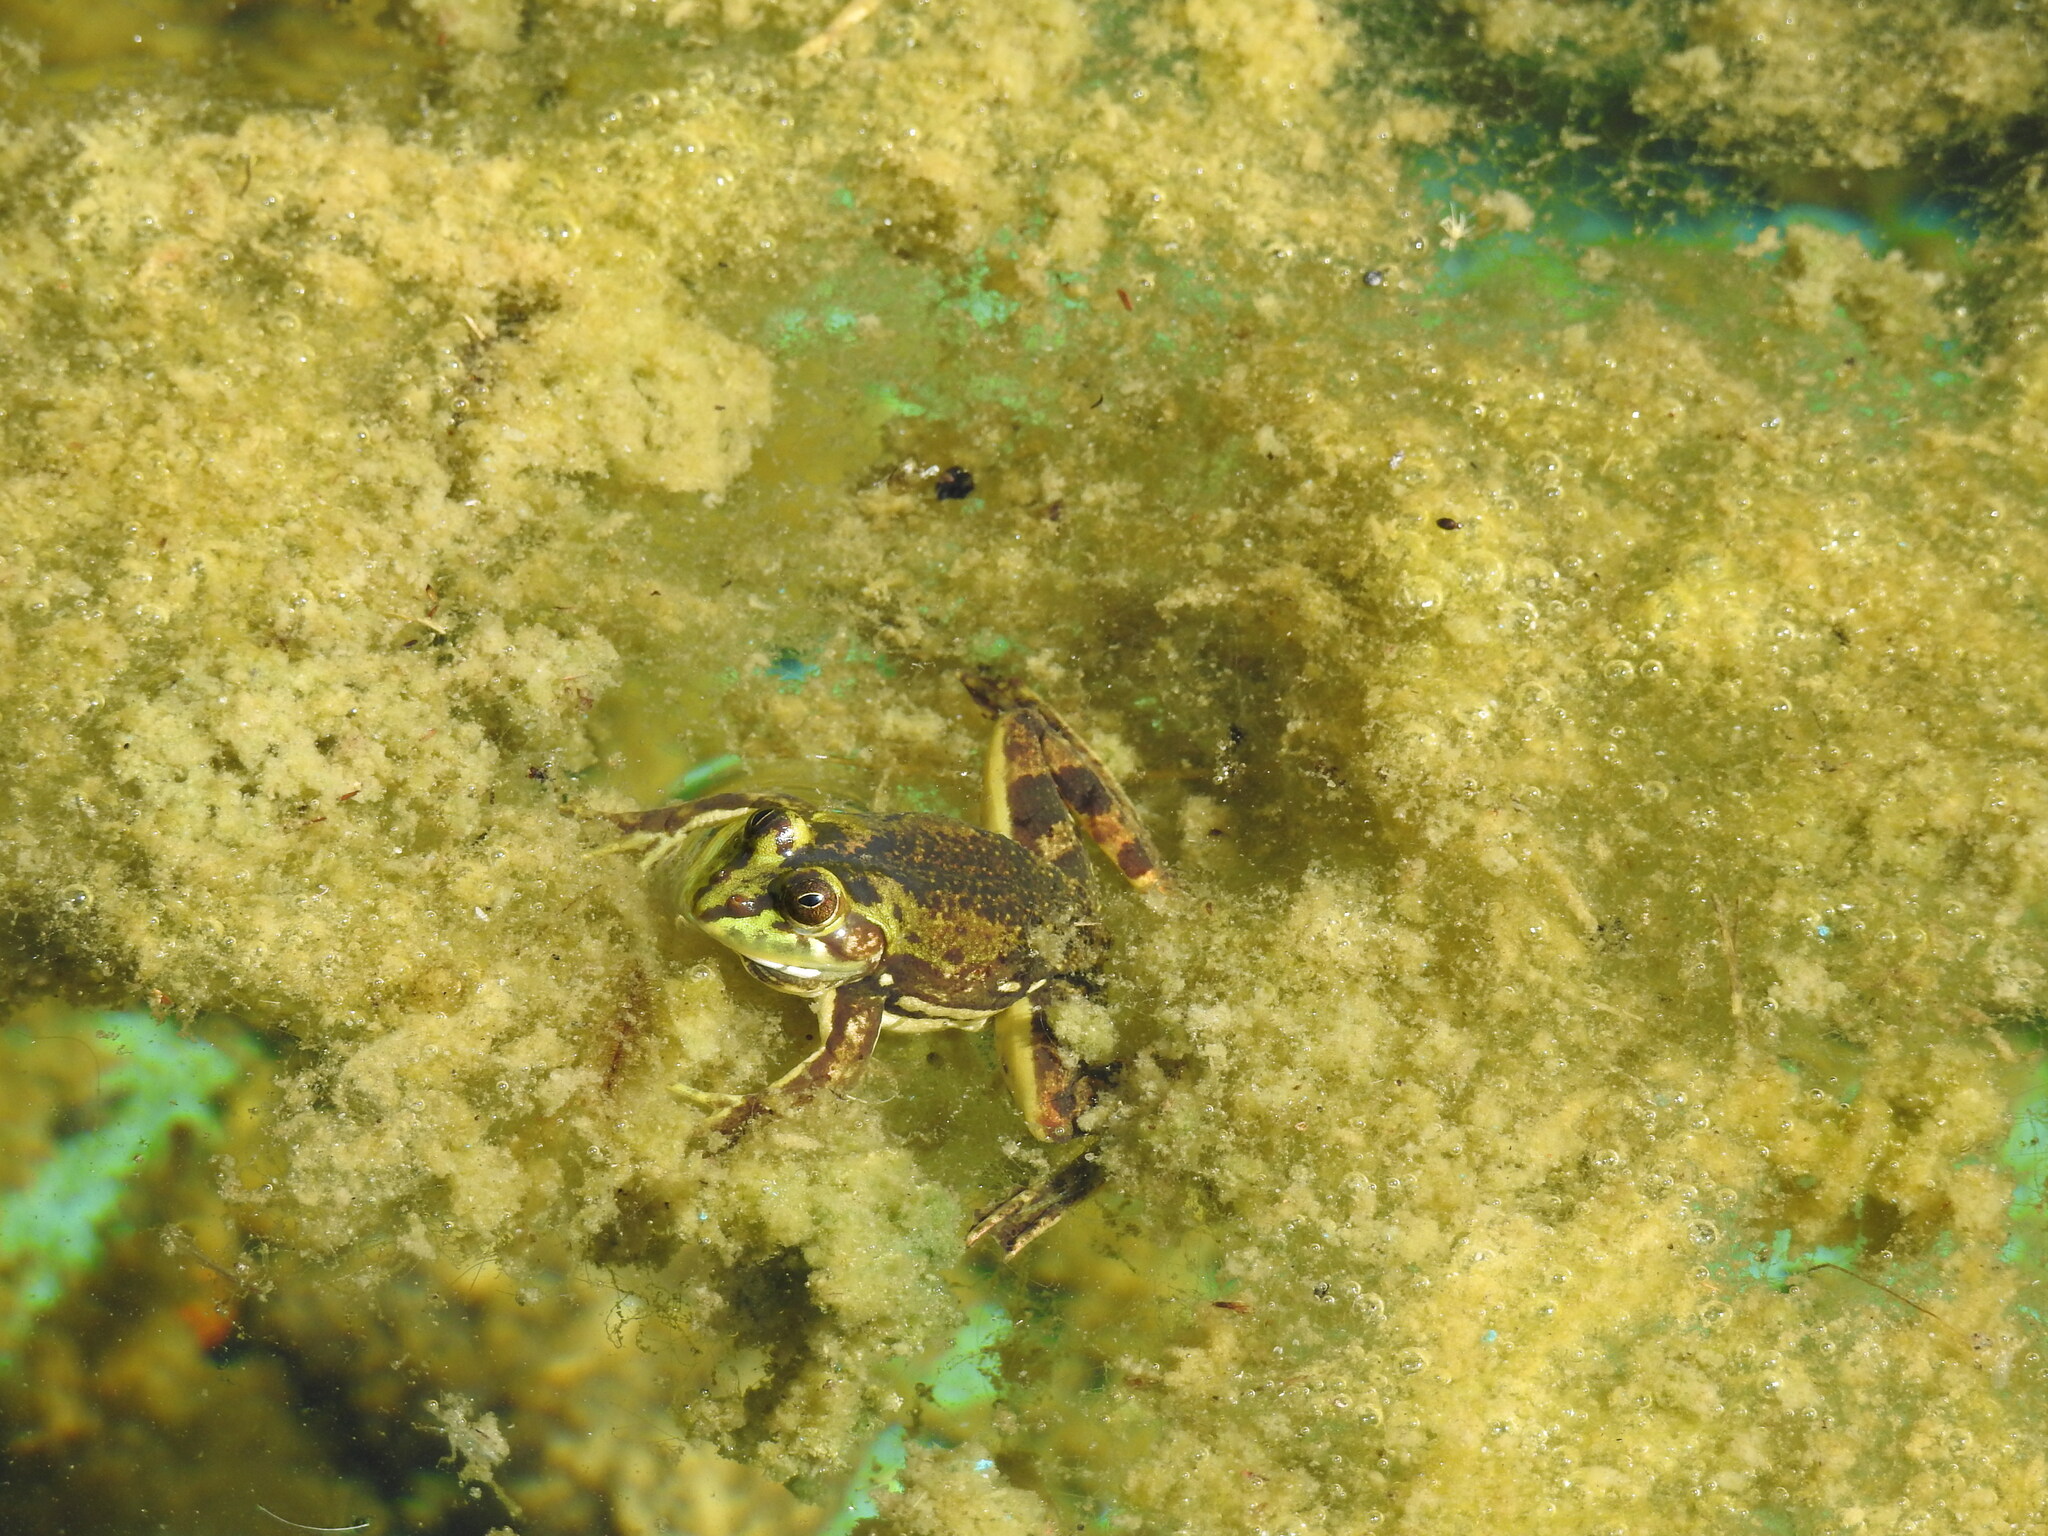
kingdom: Animalia
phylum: Chordata
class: Amphibia
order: Anura
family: Hylidae
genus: Pseudis
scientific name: Pseudis minuta
